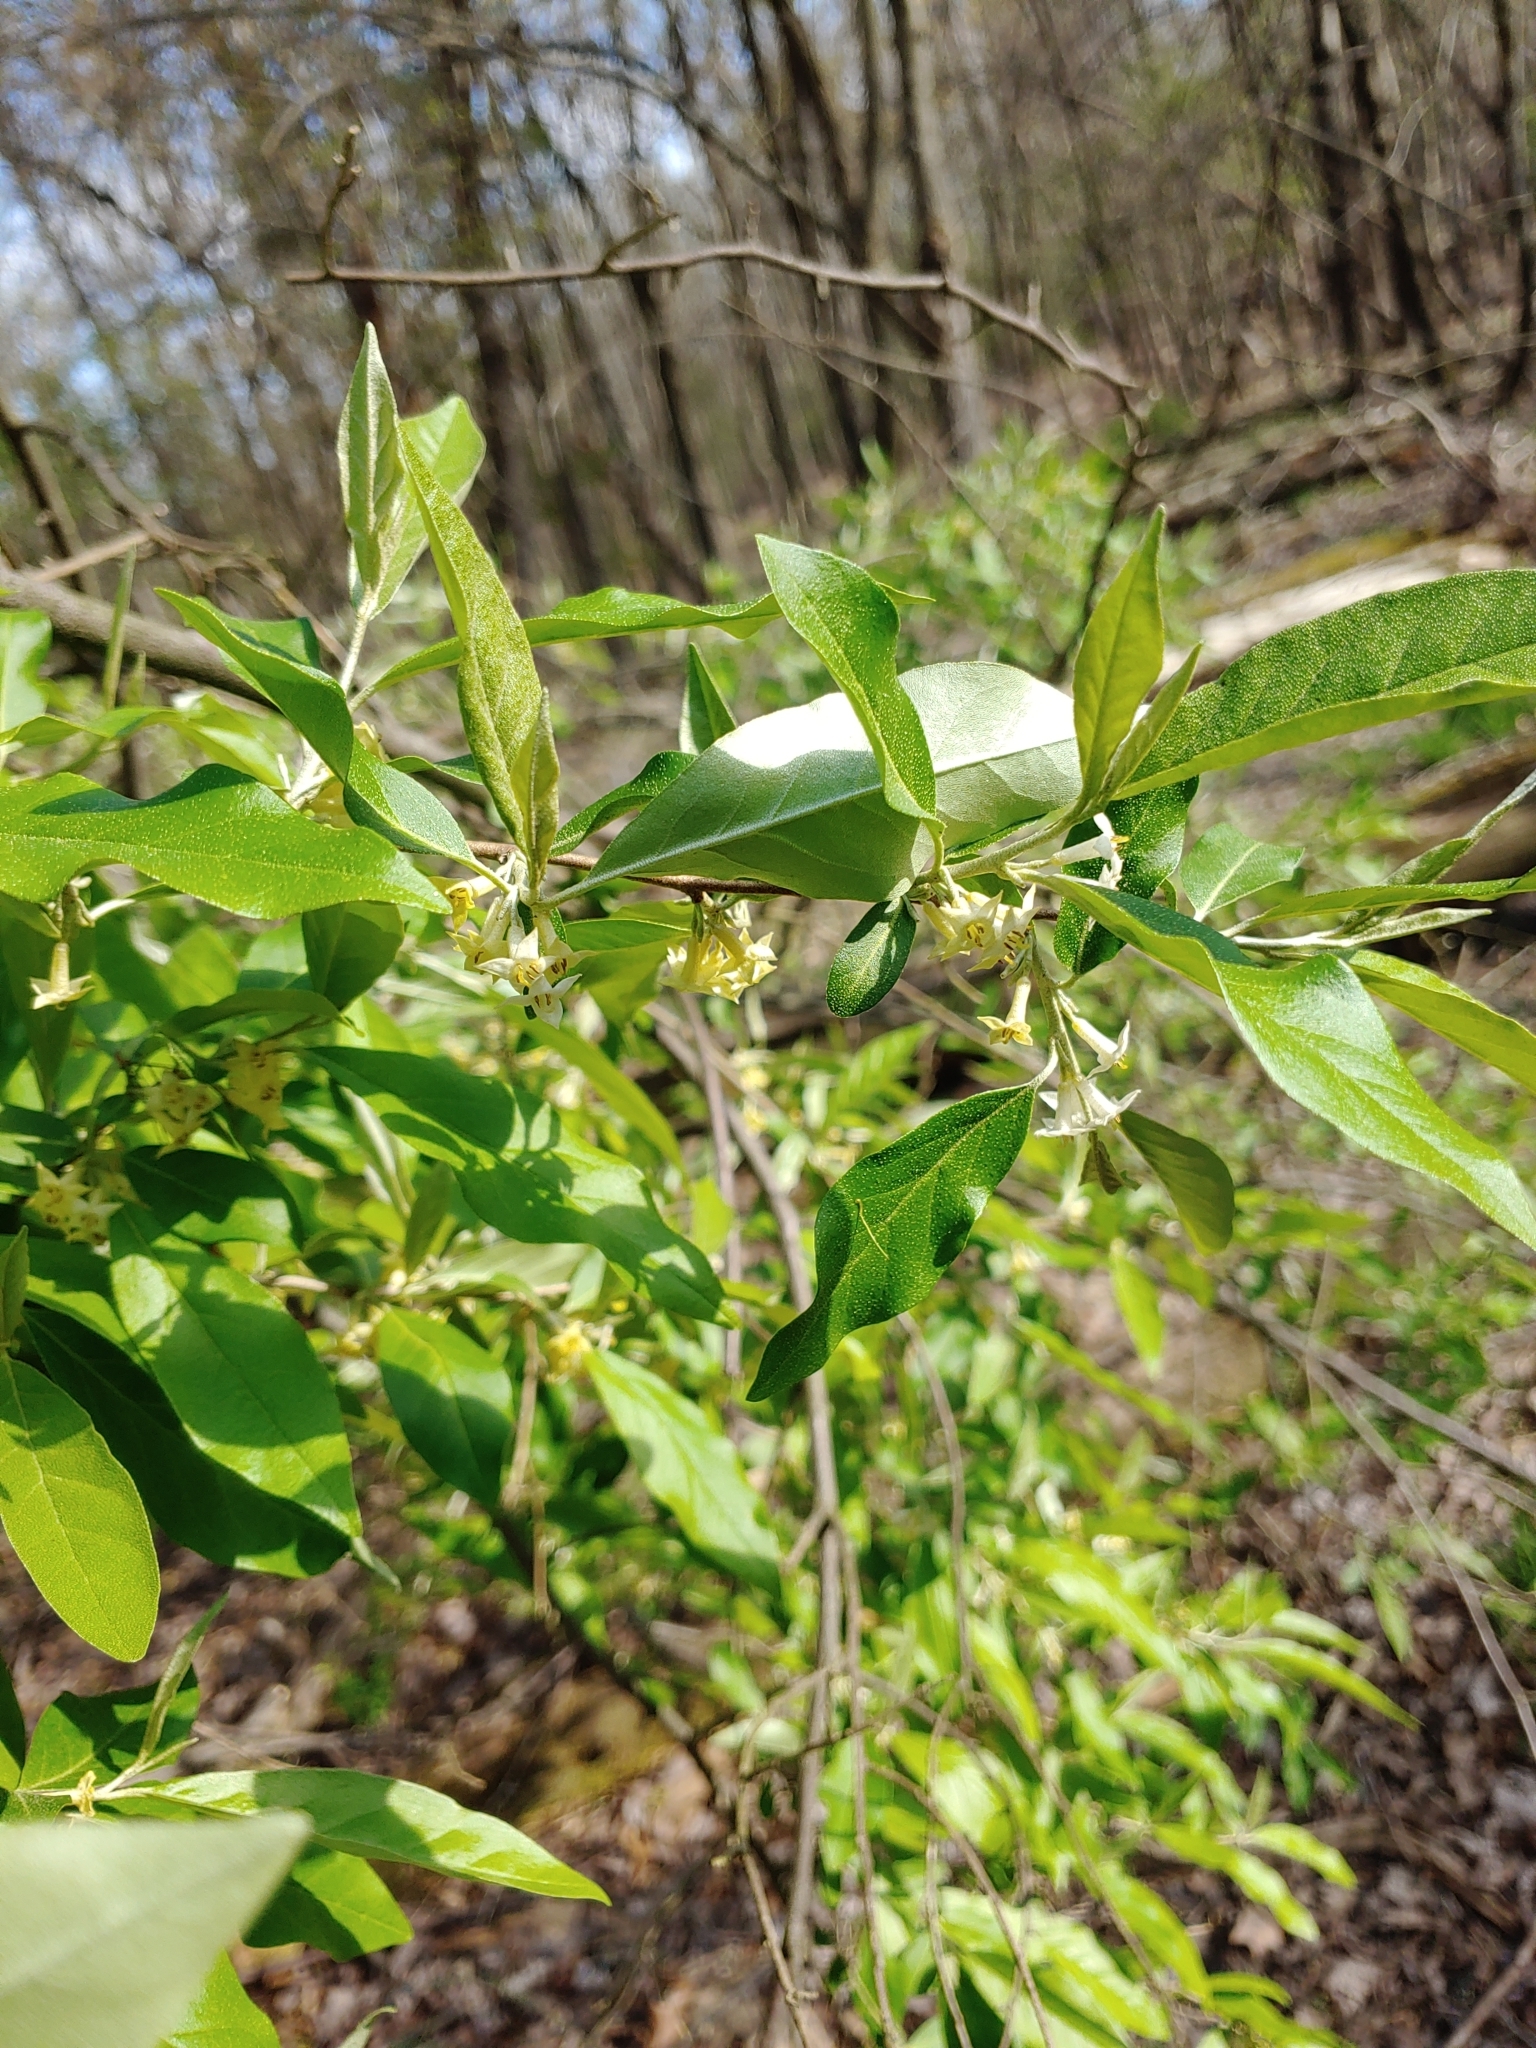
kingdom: Plantae
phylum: Tracheophyta
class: Magnoliopsida
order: Rosales
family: Elaeagnaceae
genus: Elaeagnus
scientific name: Elaeagnus umbellata
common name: Autumn olive
